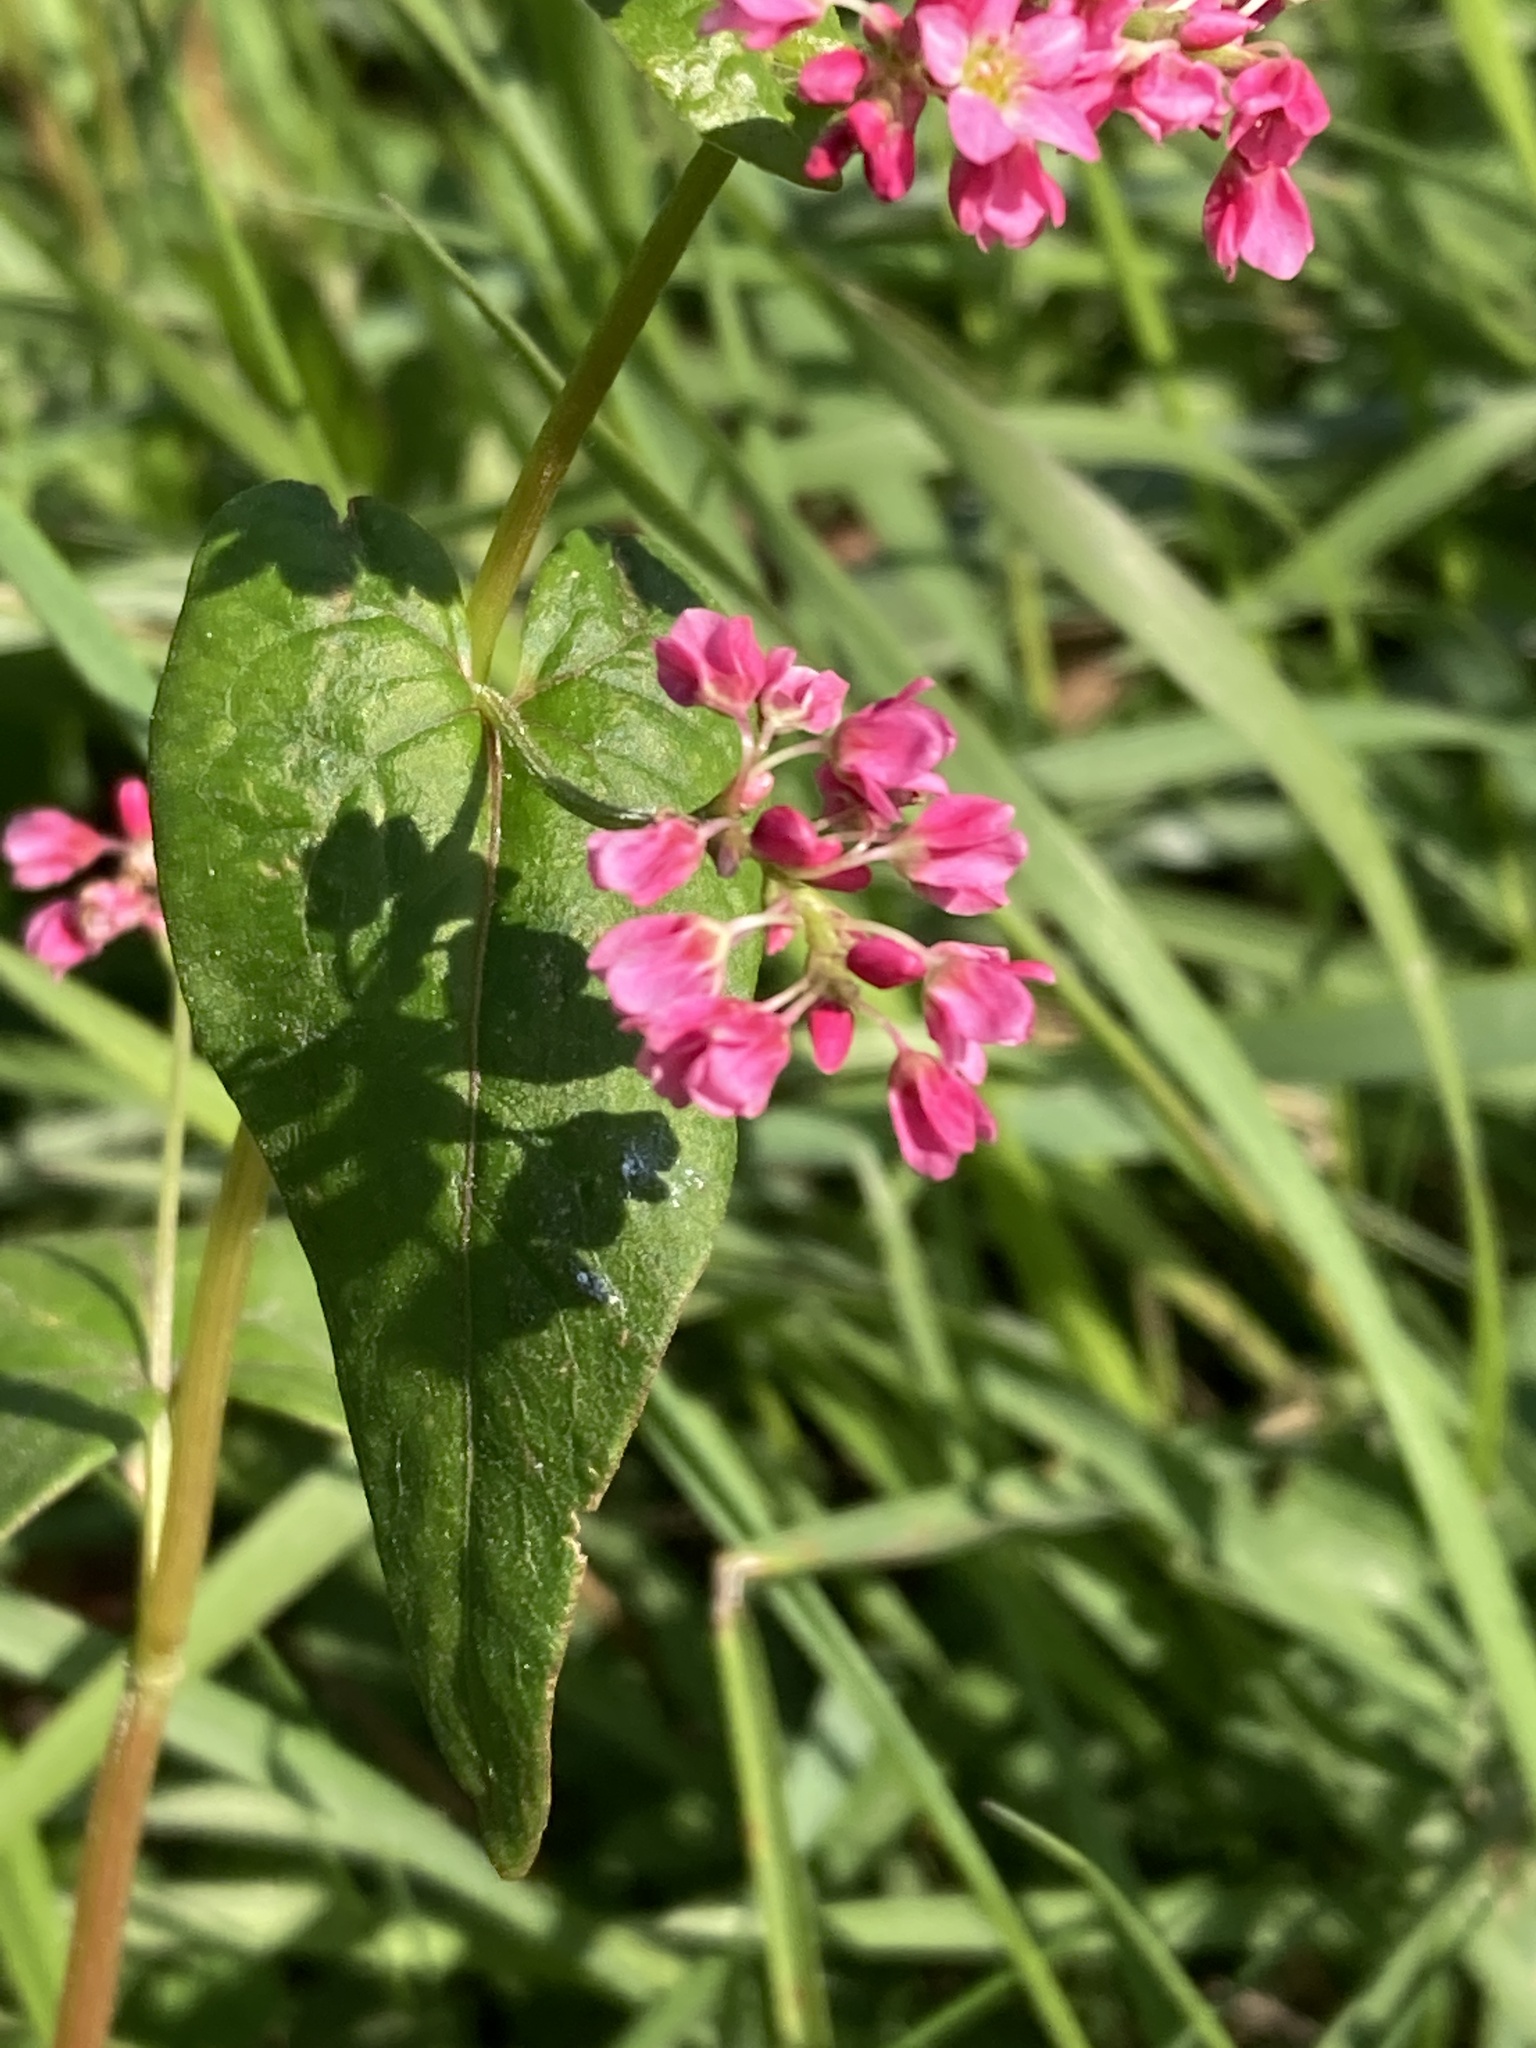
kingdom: Plantae
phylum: Tracheophyta
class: Magnoliopsida
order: Caryophyllales
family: Polygonaceae
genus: Fagopyrum
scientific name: Fagopyrum esculentum
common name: Buckwheat
